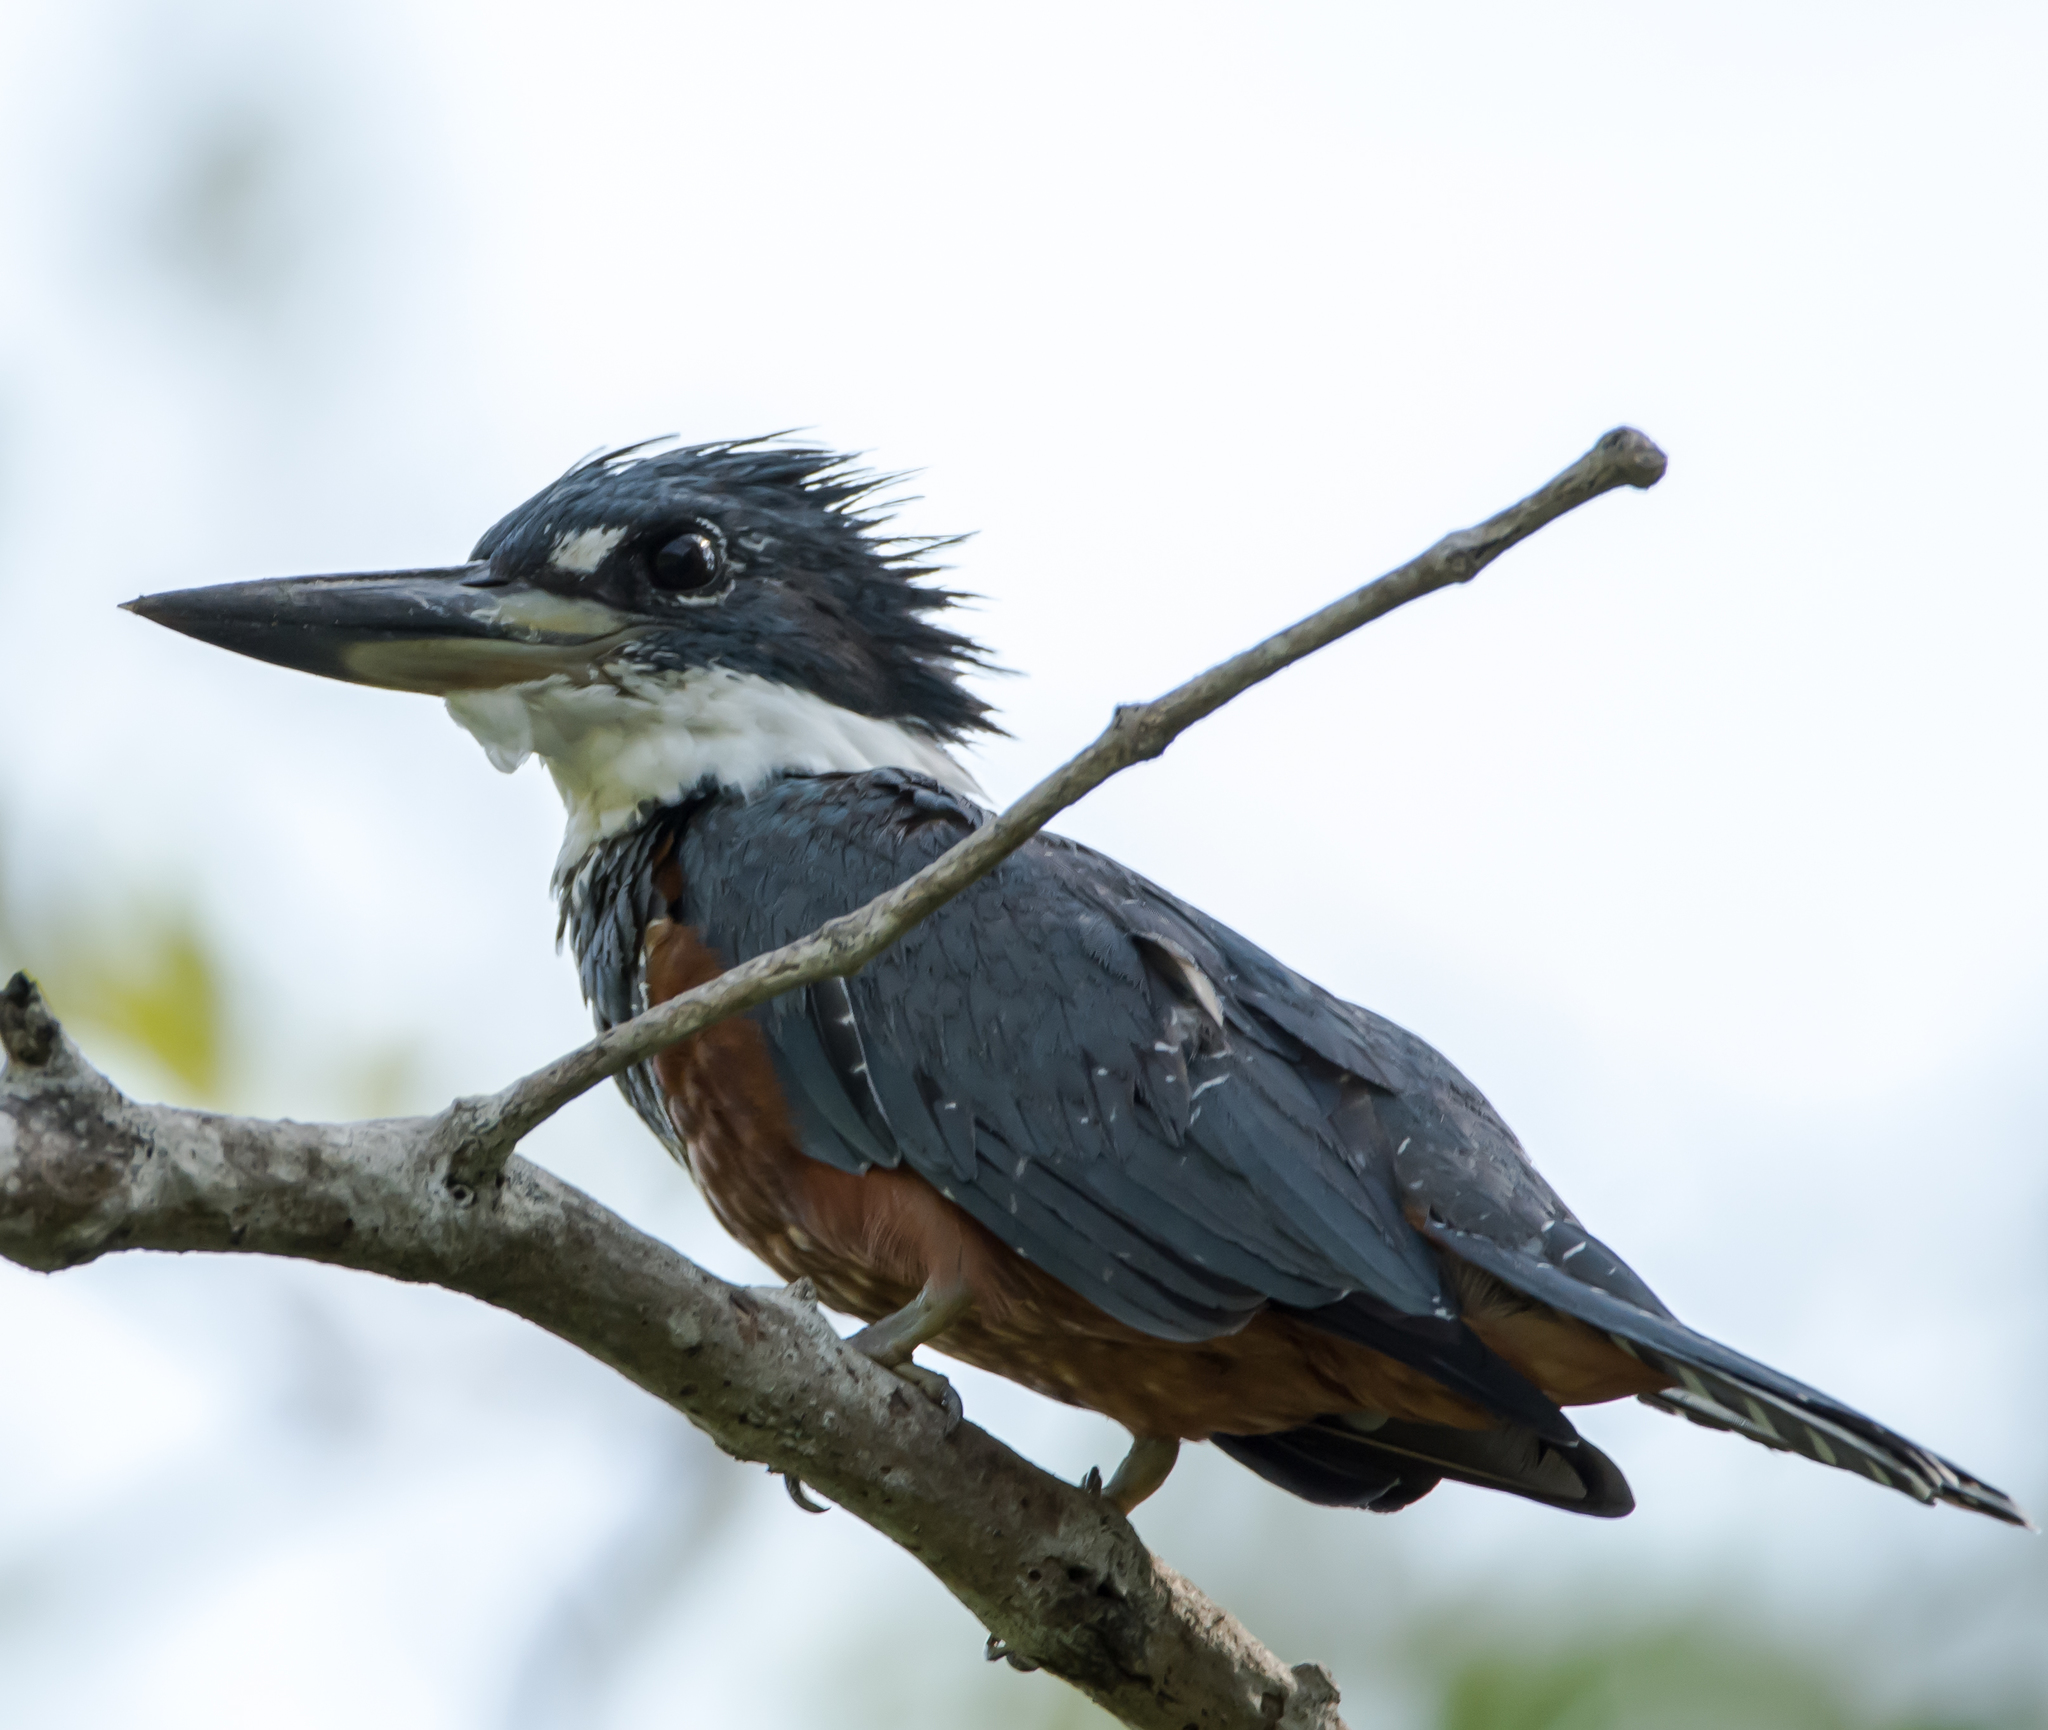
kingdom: Animalia
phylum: Chordata
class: Aves
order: Coraciiformes
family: Alcedinidae
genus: Megaceryle
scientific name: Megaceryle torquata
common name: Ringed kingfisher
